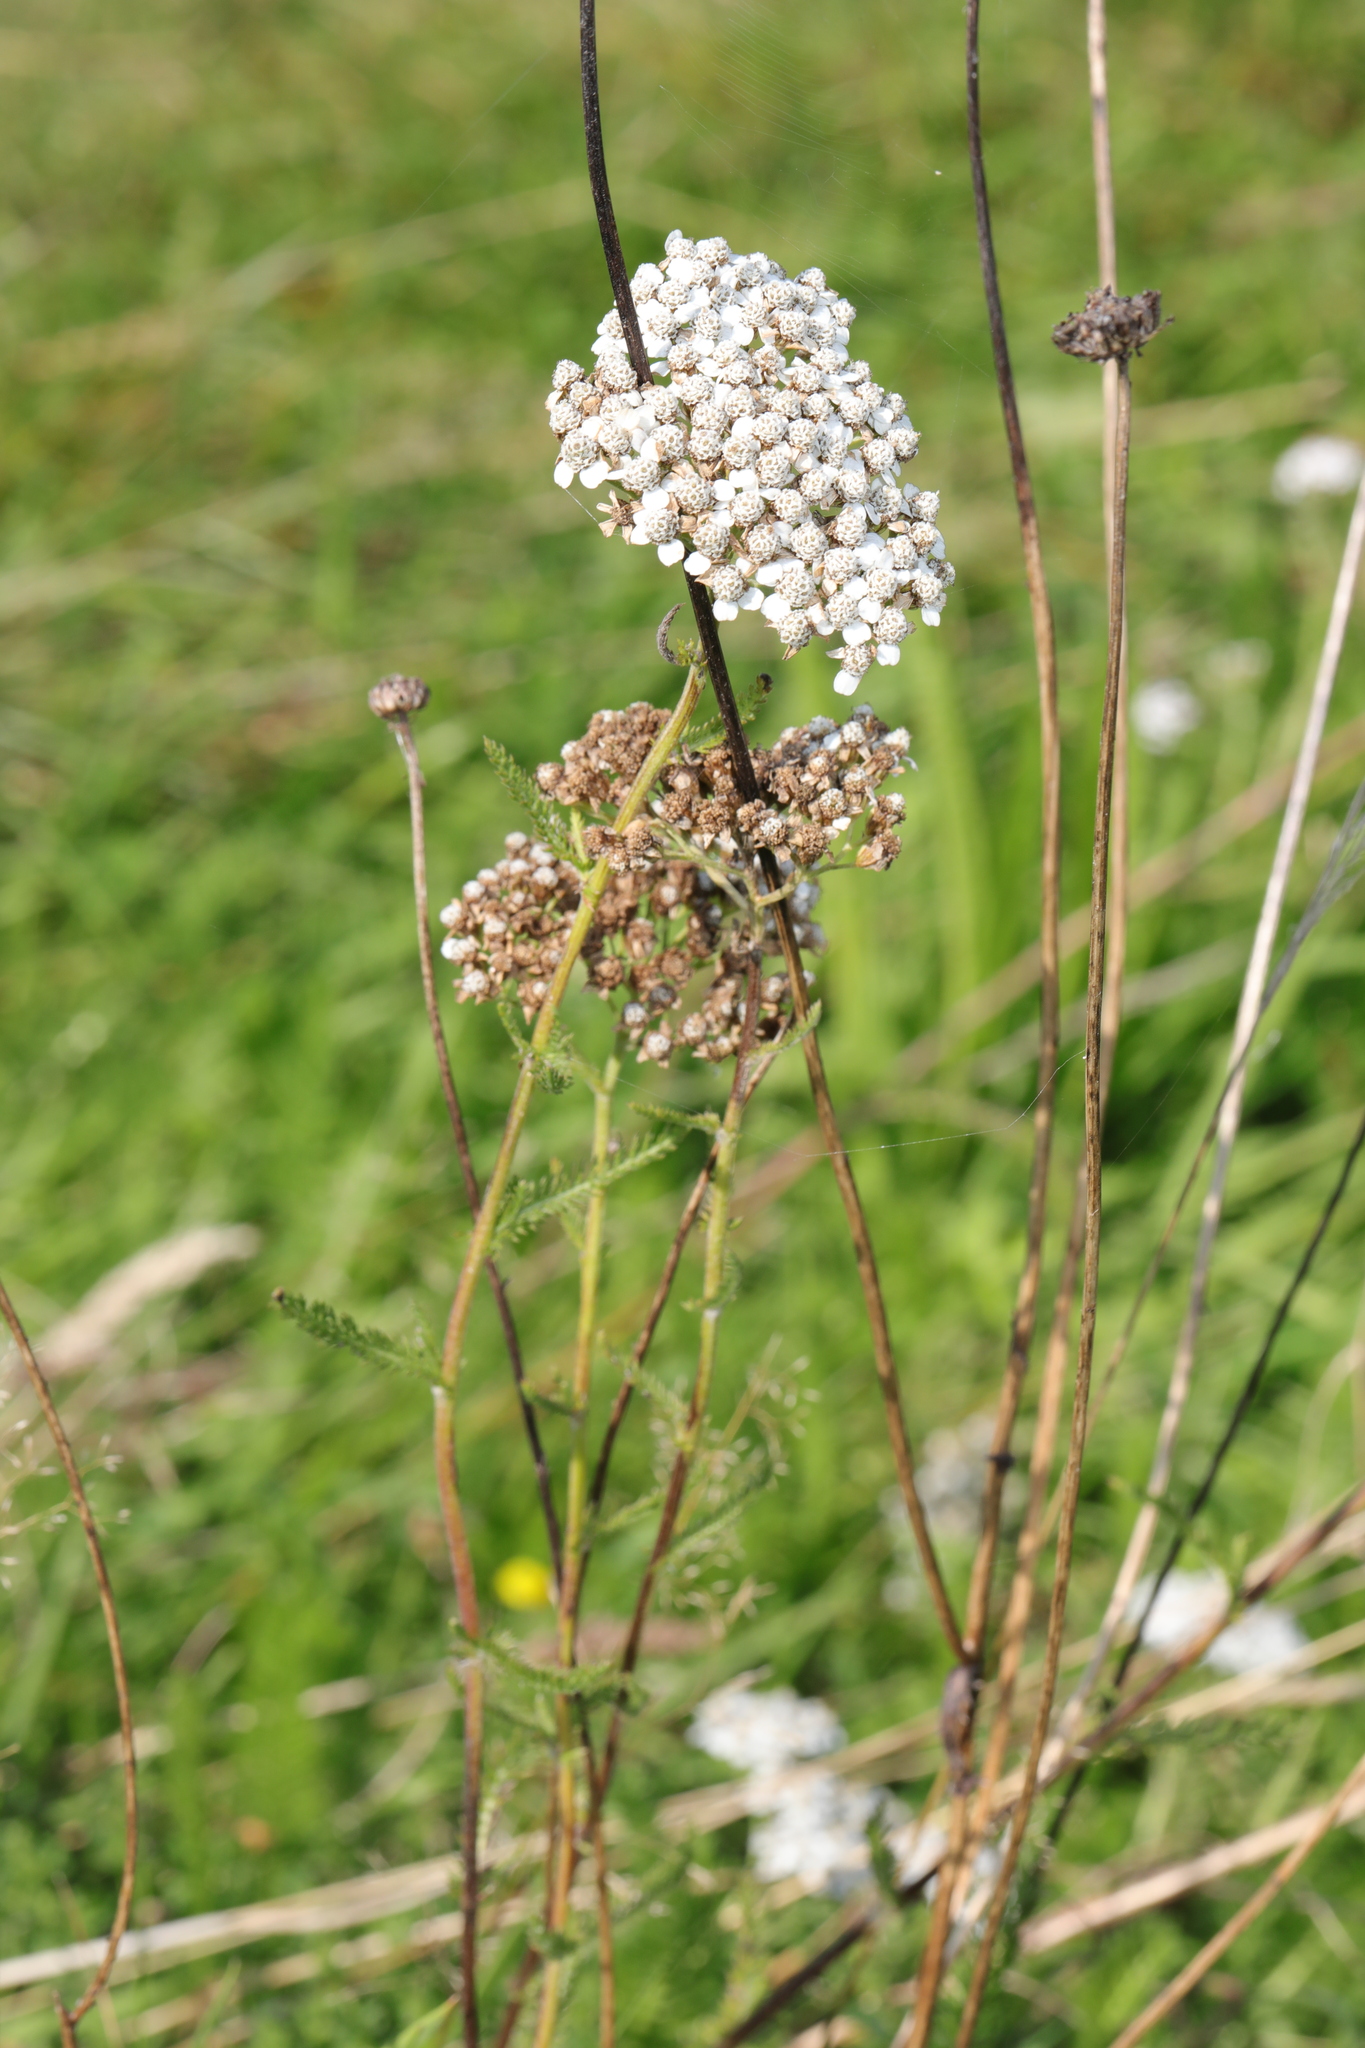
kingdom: Plantae
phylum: Tracheophyta
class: Magnoliopsida
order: Asterales
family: Asteraceae
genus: Achillea
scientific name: Achillea millefolium
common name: Yarrow
